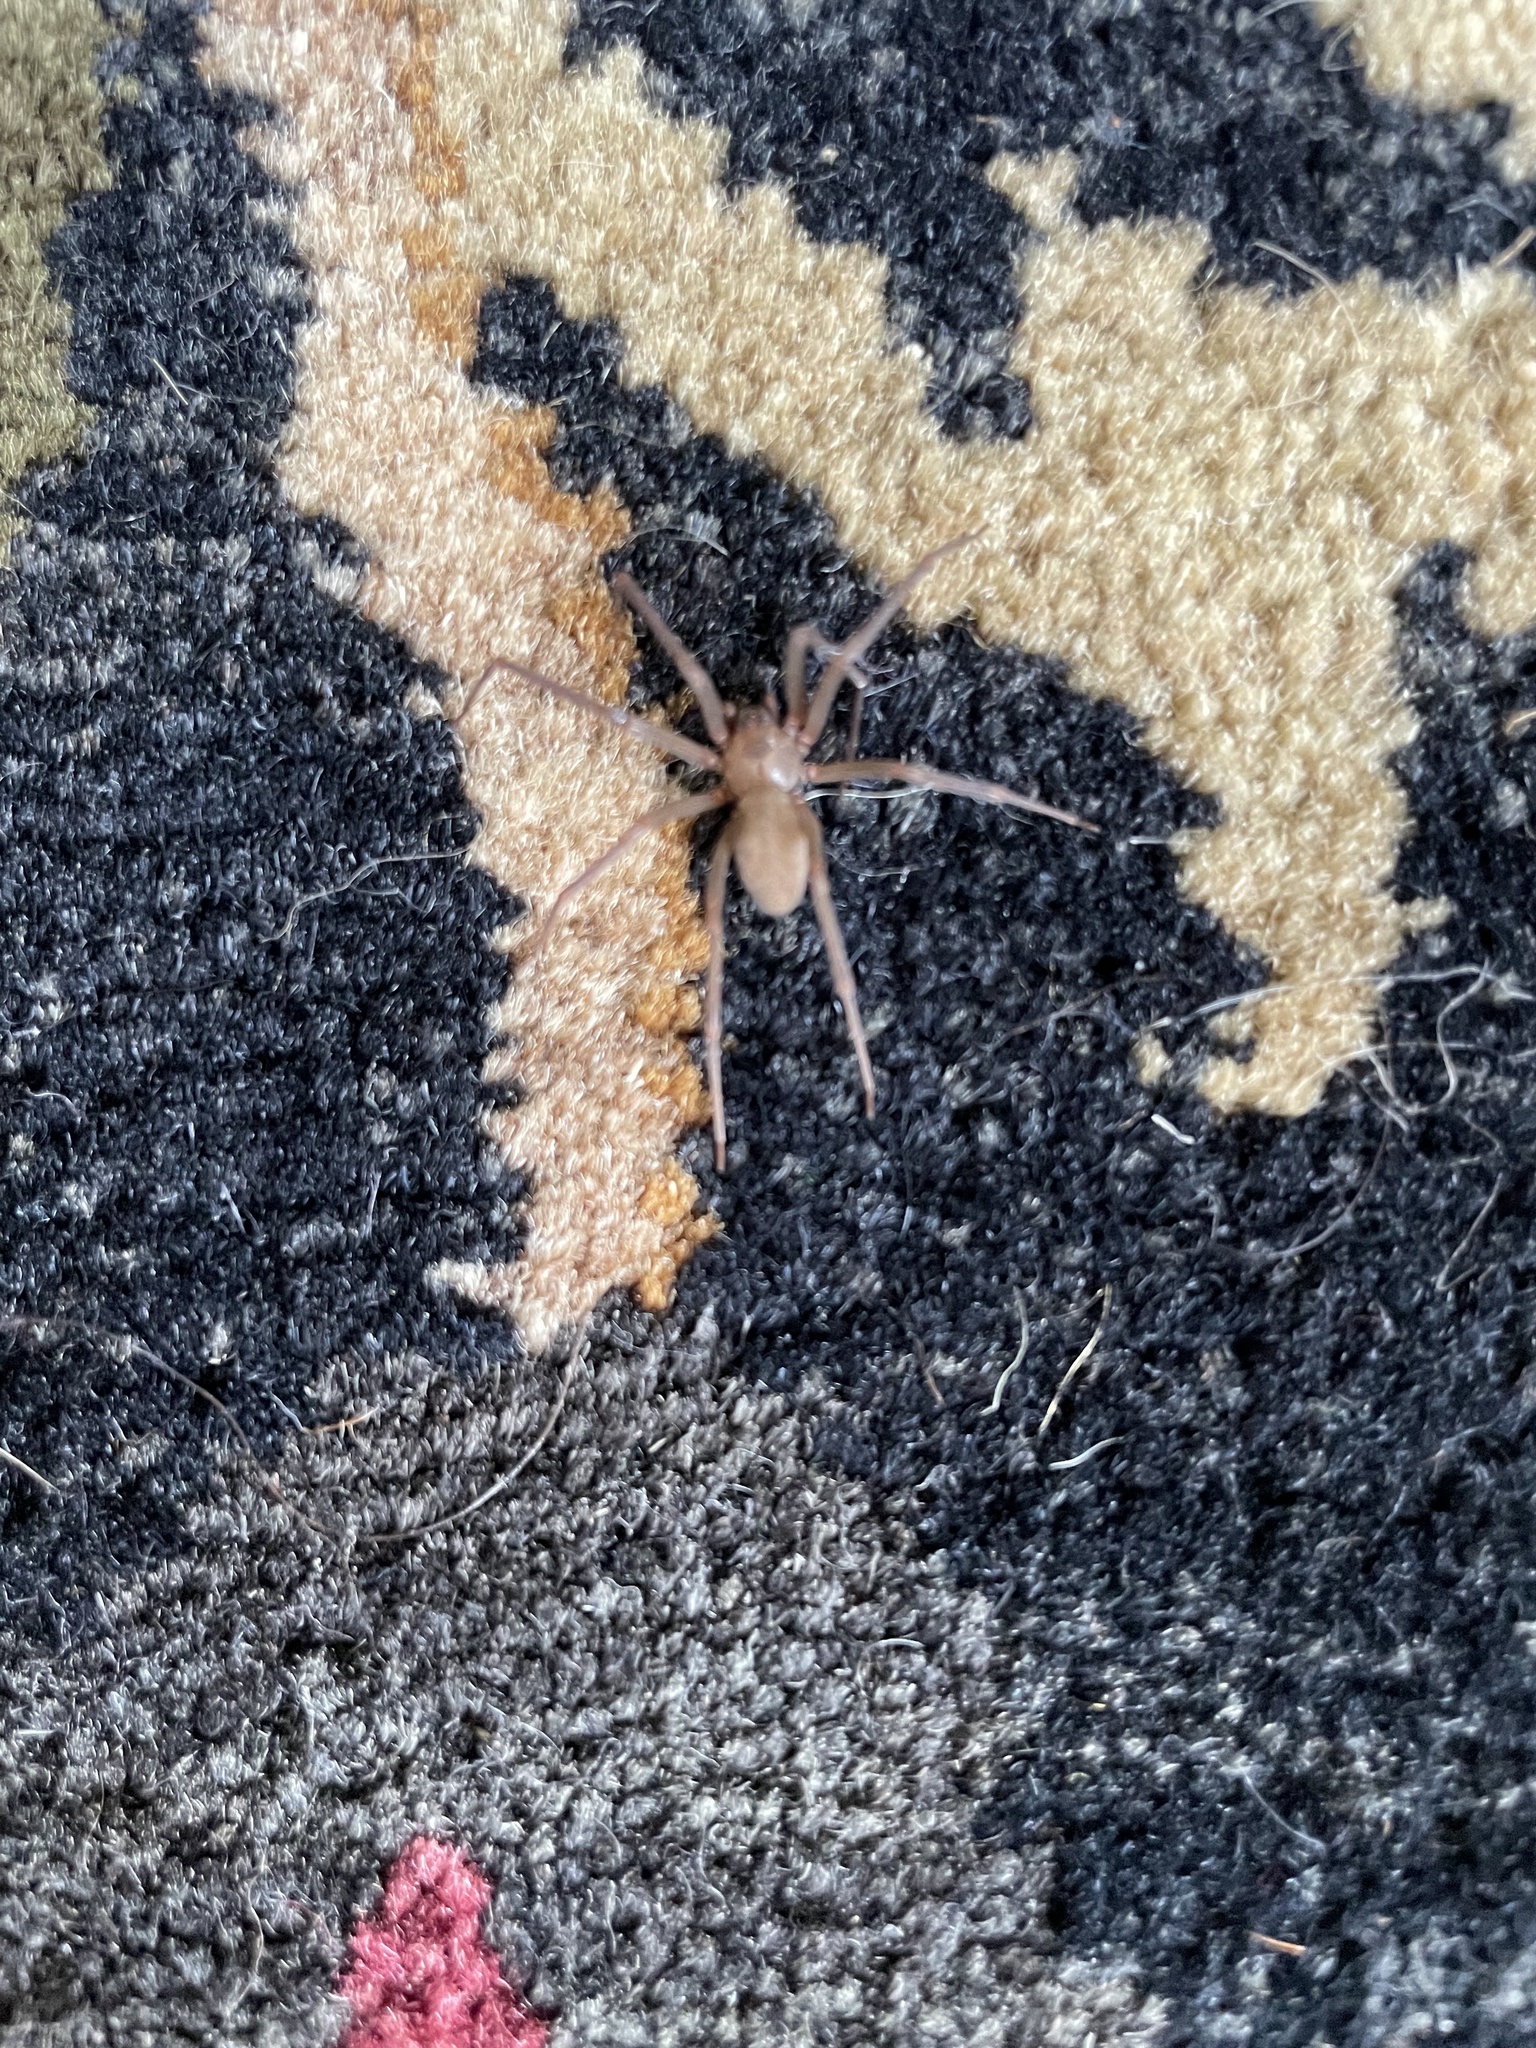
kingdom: Animalia
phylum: Arthropoda
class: Arachnida
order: Araneae
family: Sicariidae
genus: Loxosceles
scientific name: Loxosceles reclusa
